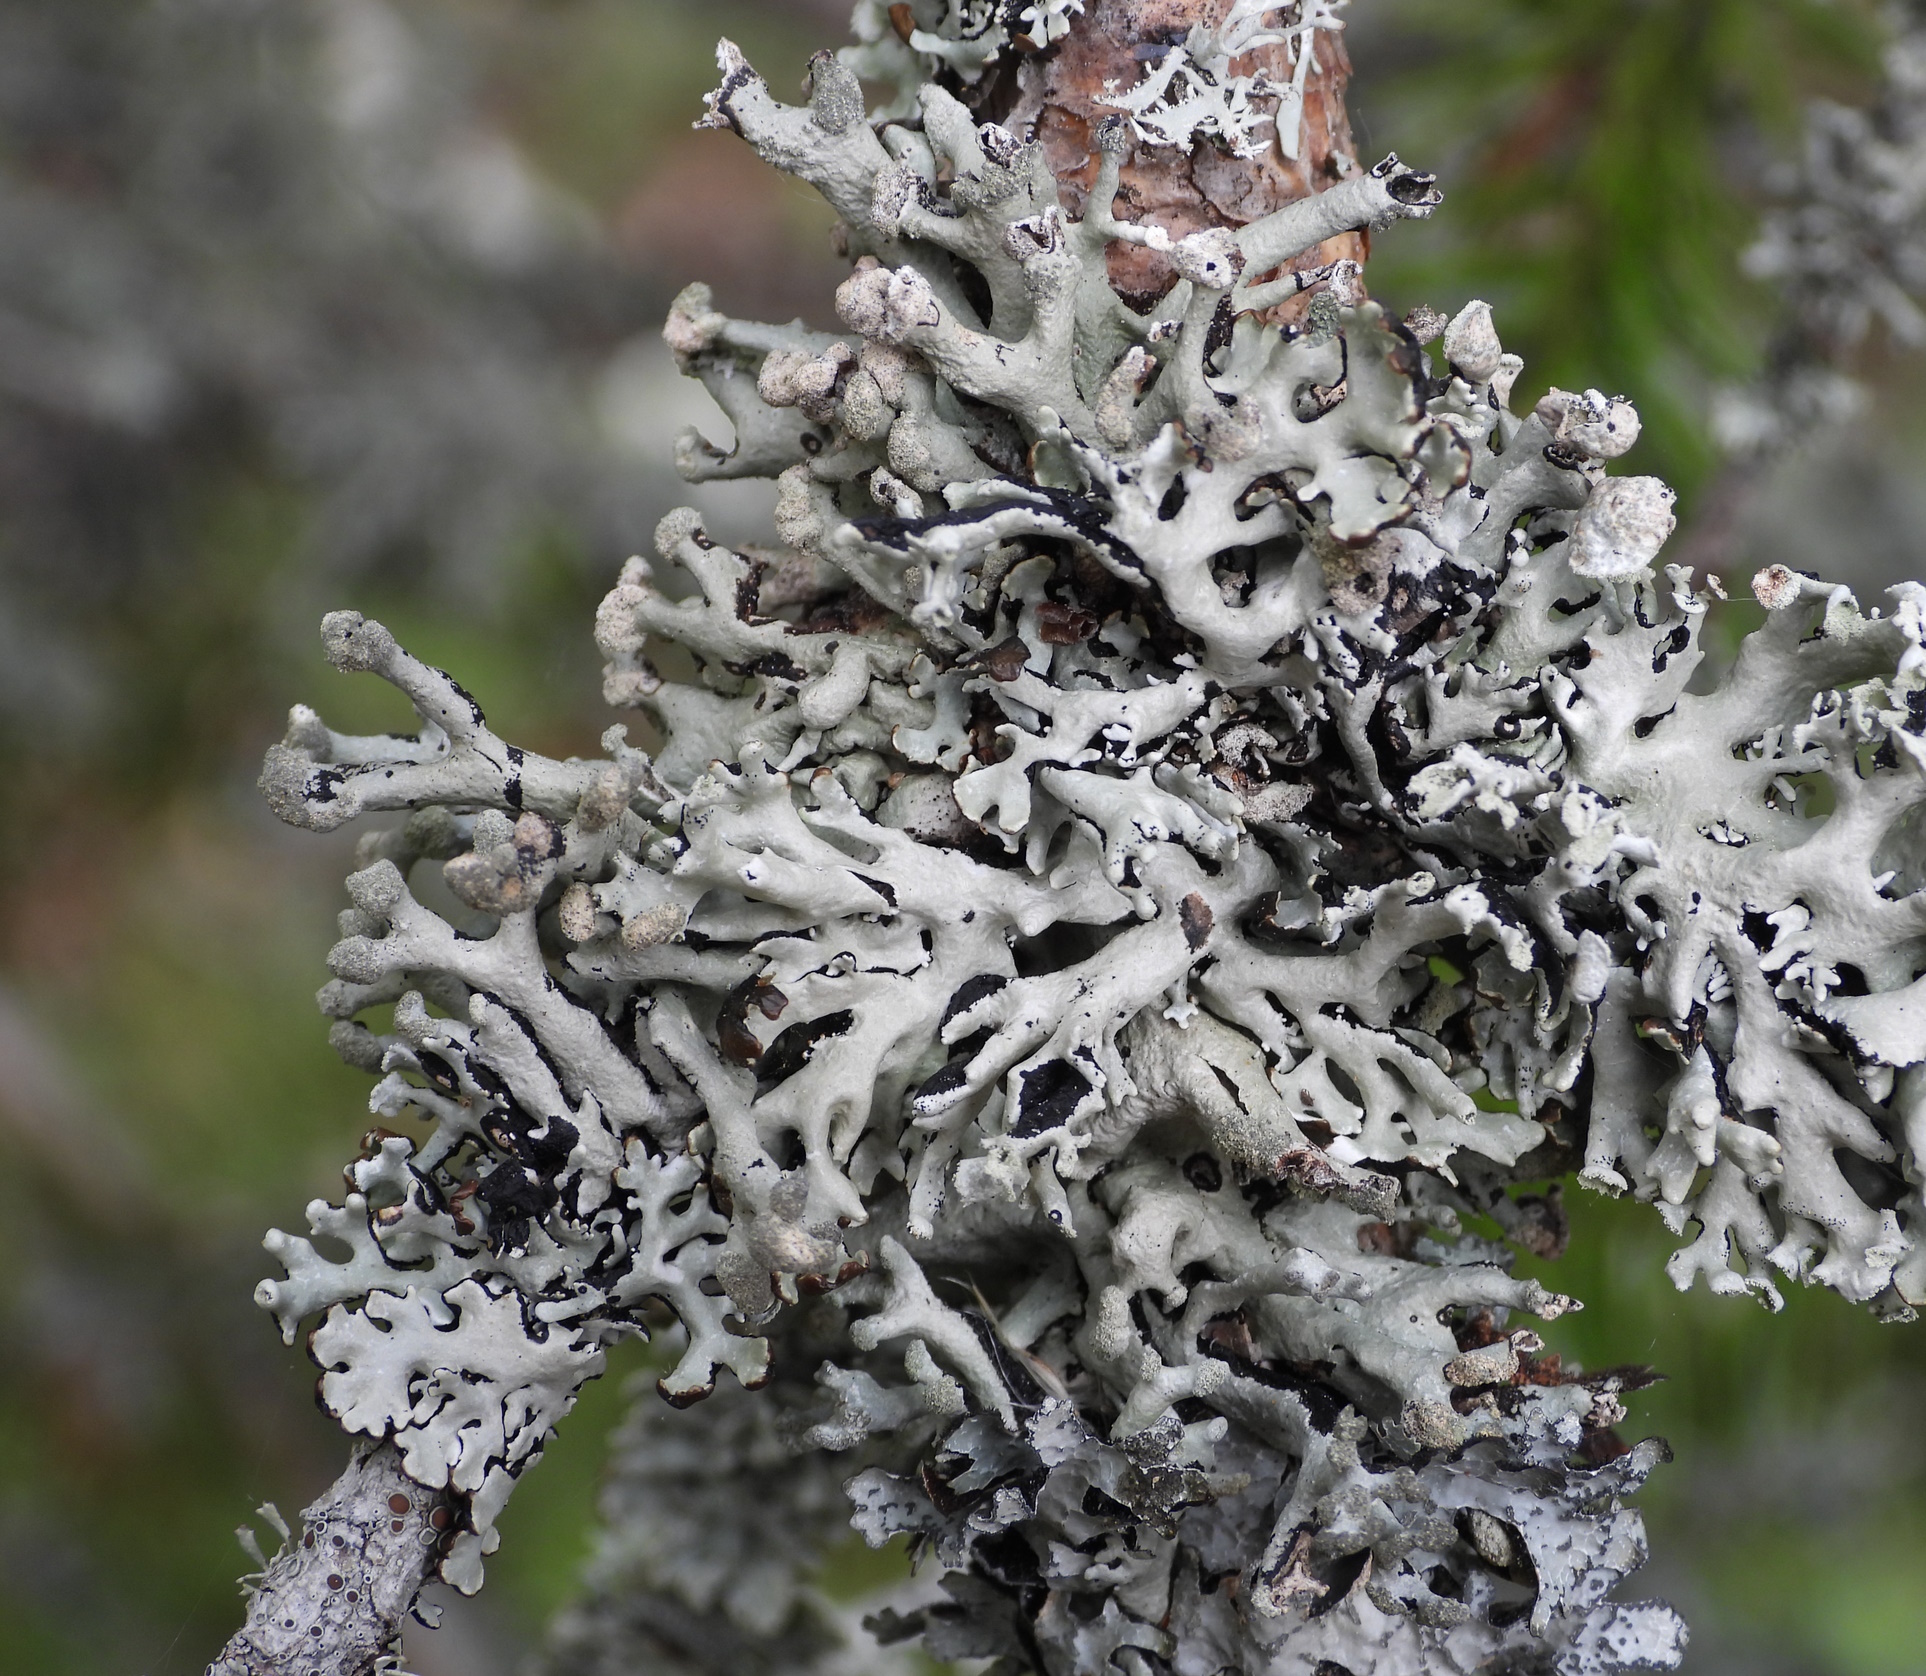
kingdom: Fungi
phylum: Ascomycota
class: Lecanoromycetes
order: Lecanorales
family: Parmeliaceae
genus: Hypogymnia
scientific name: Hypogymnia tubulosa
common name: Powder-headed tube lichen
